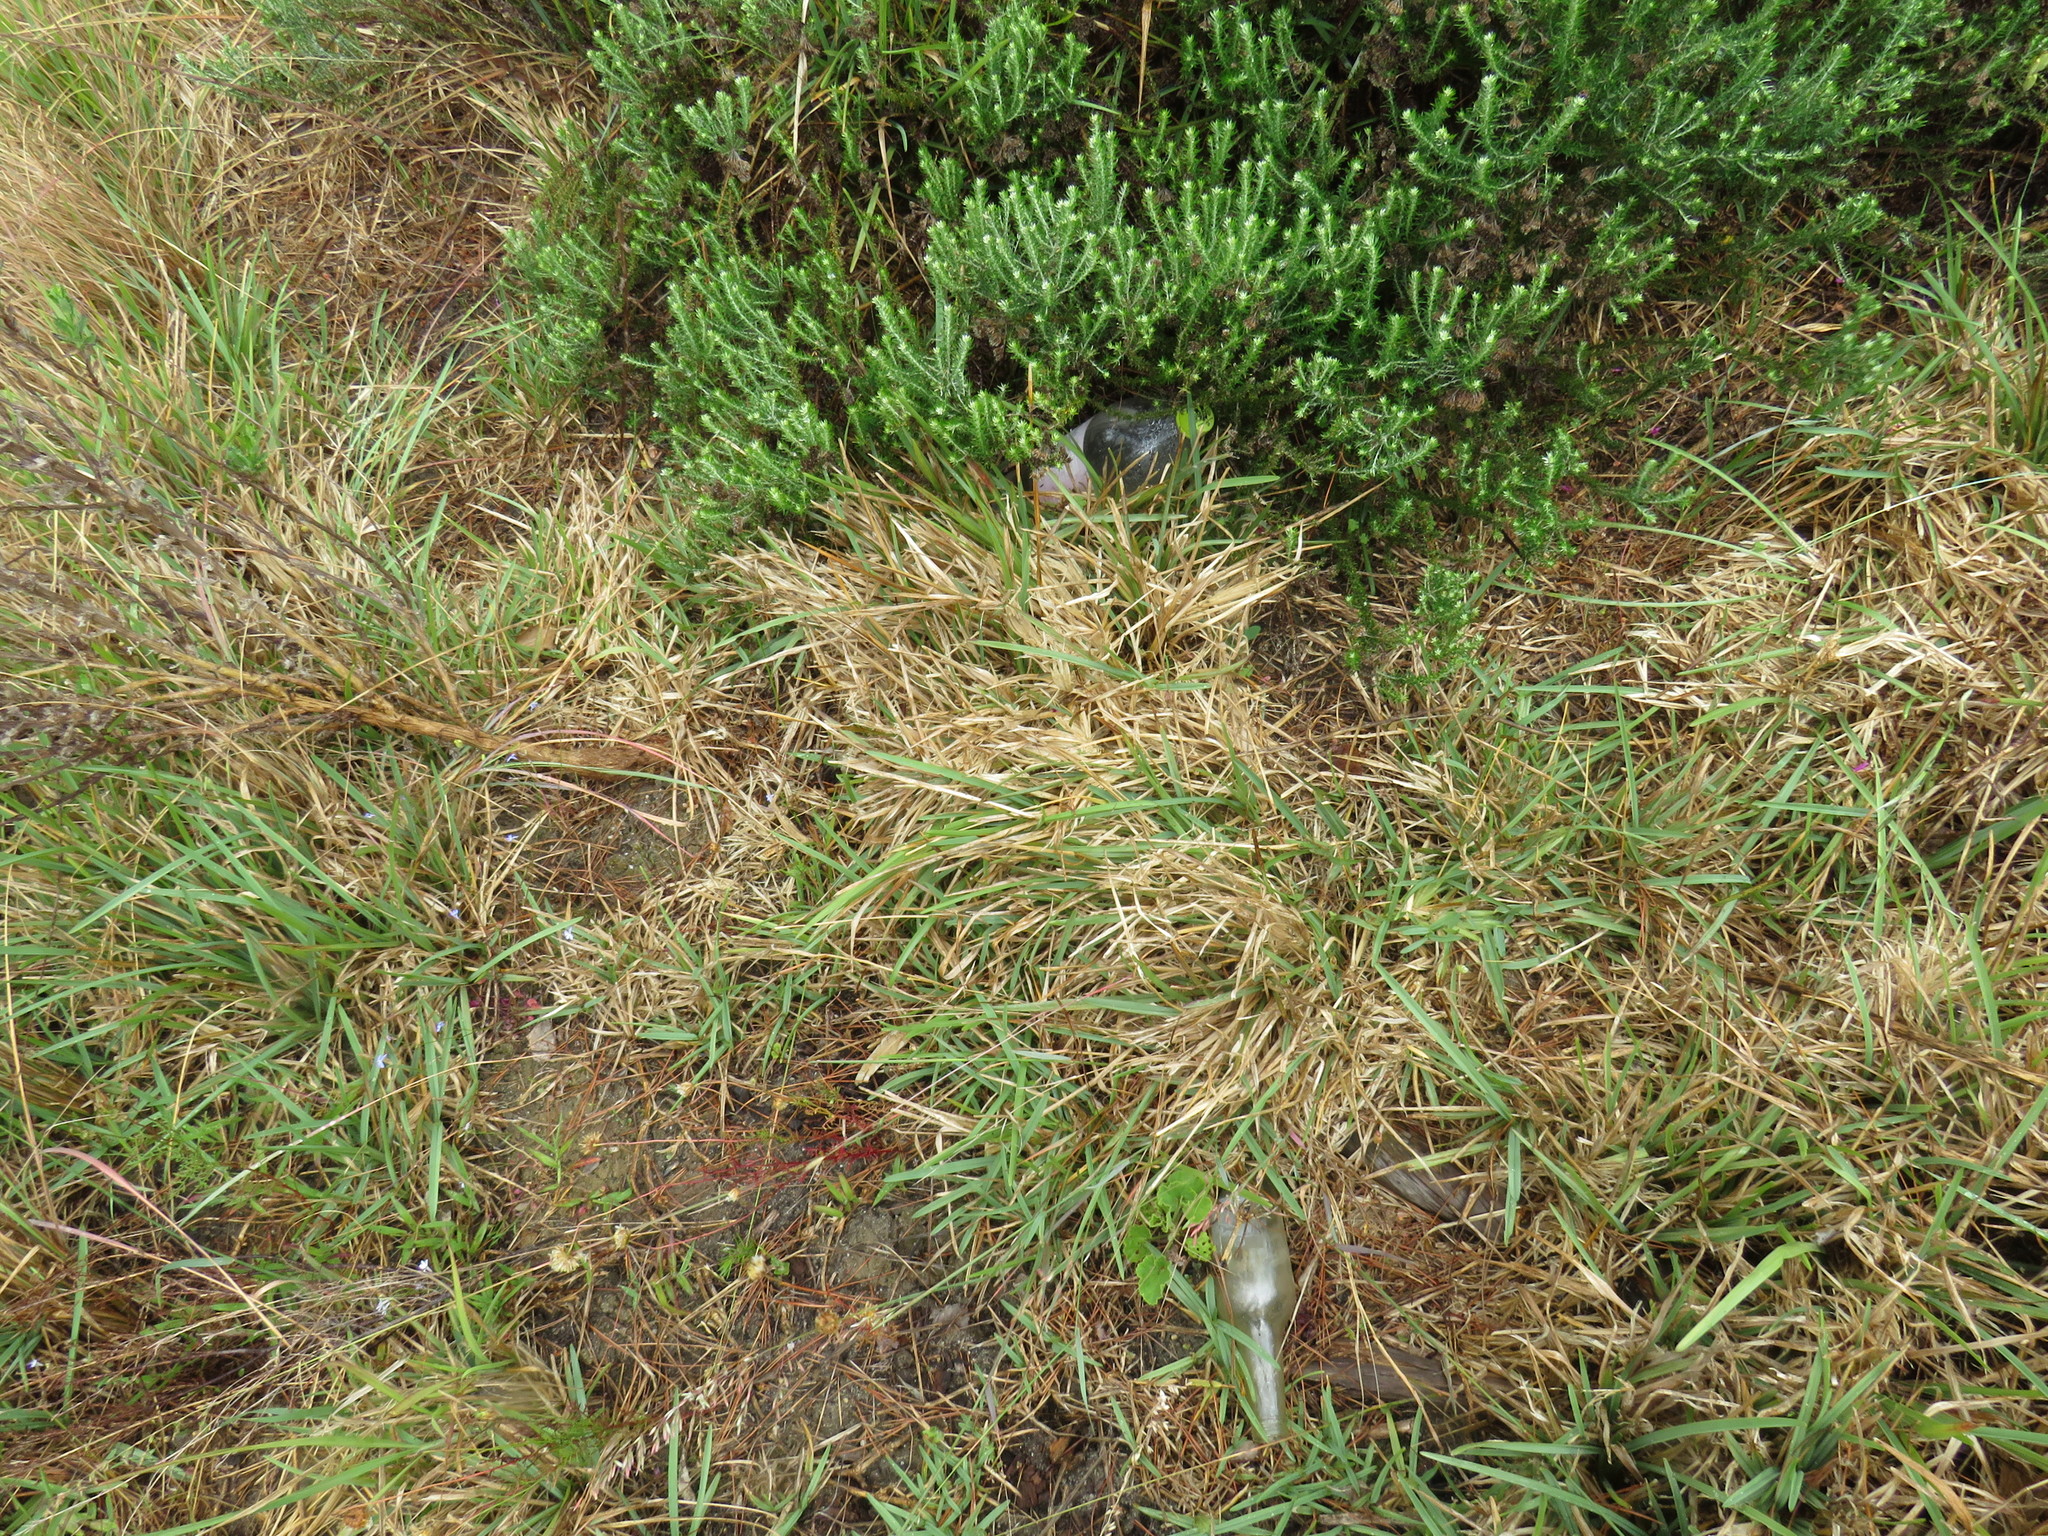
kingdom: Plantae
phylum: Tracheophyta
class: Liliopsida
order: Poales
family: Poaceae
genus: Stenotaphrum
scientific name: Stenotaphrum secundatum
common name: St. augustine grass
